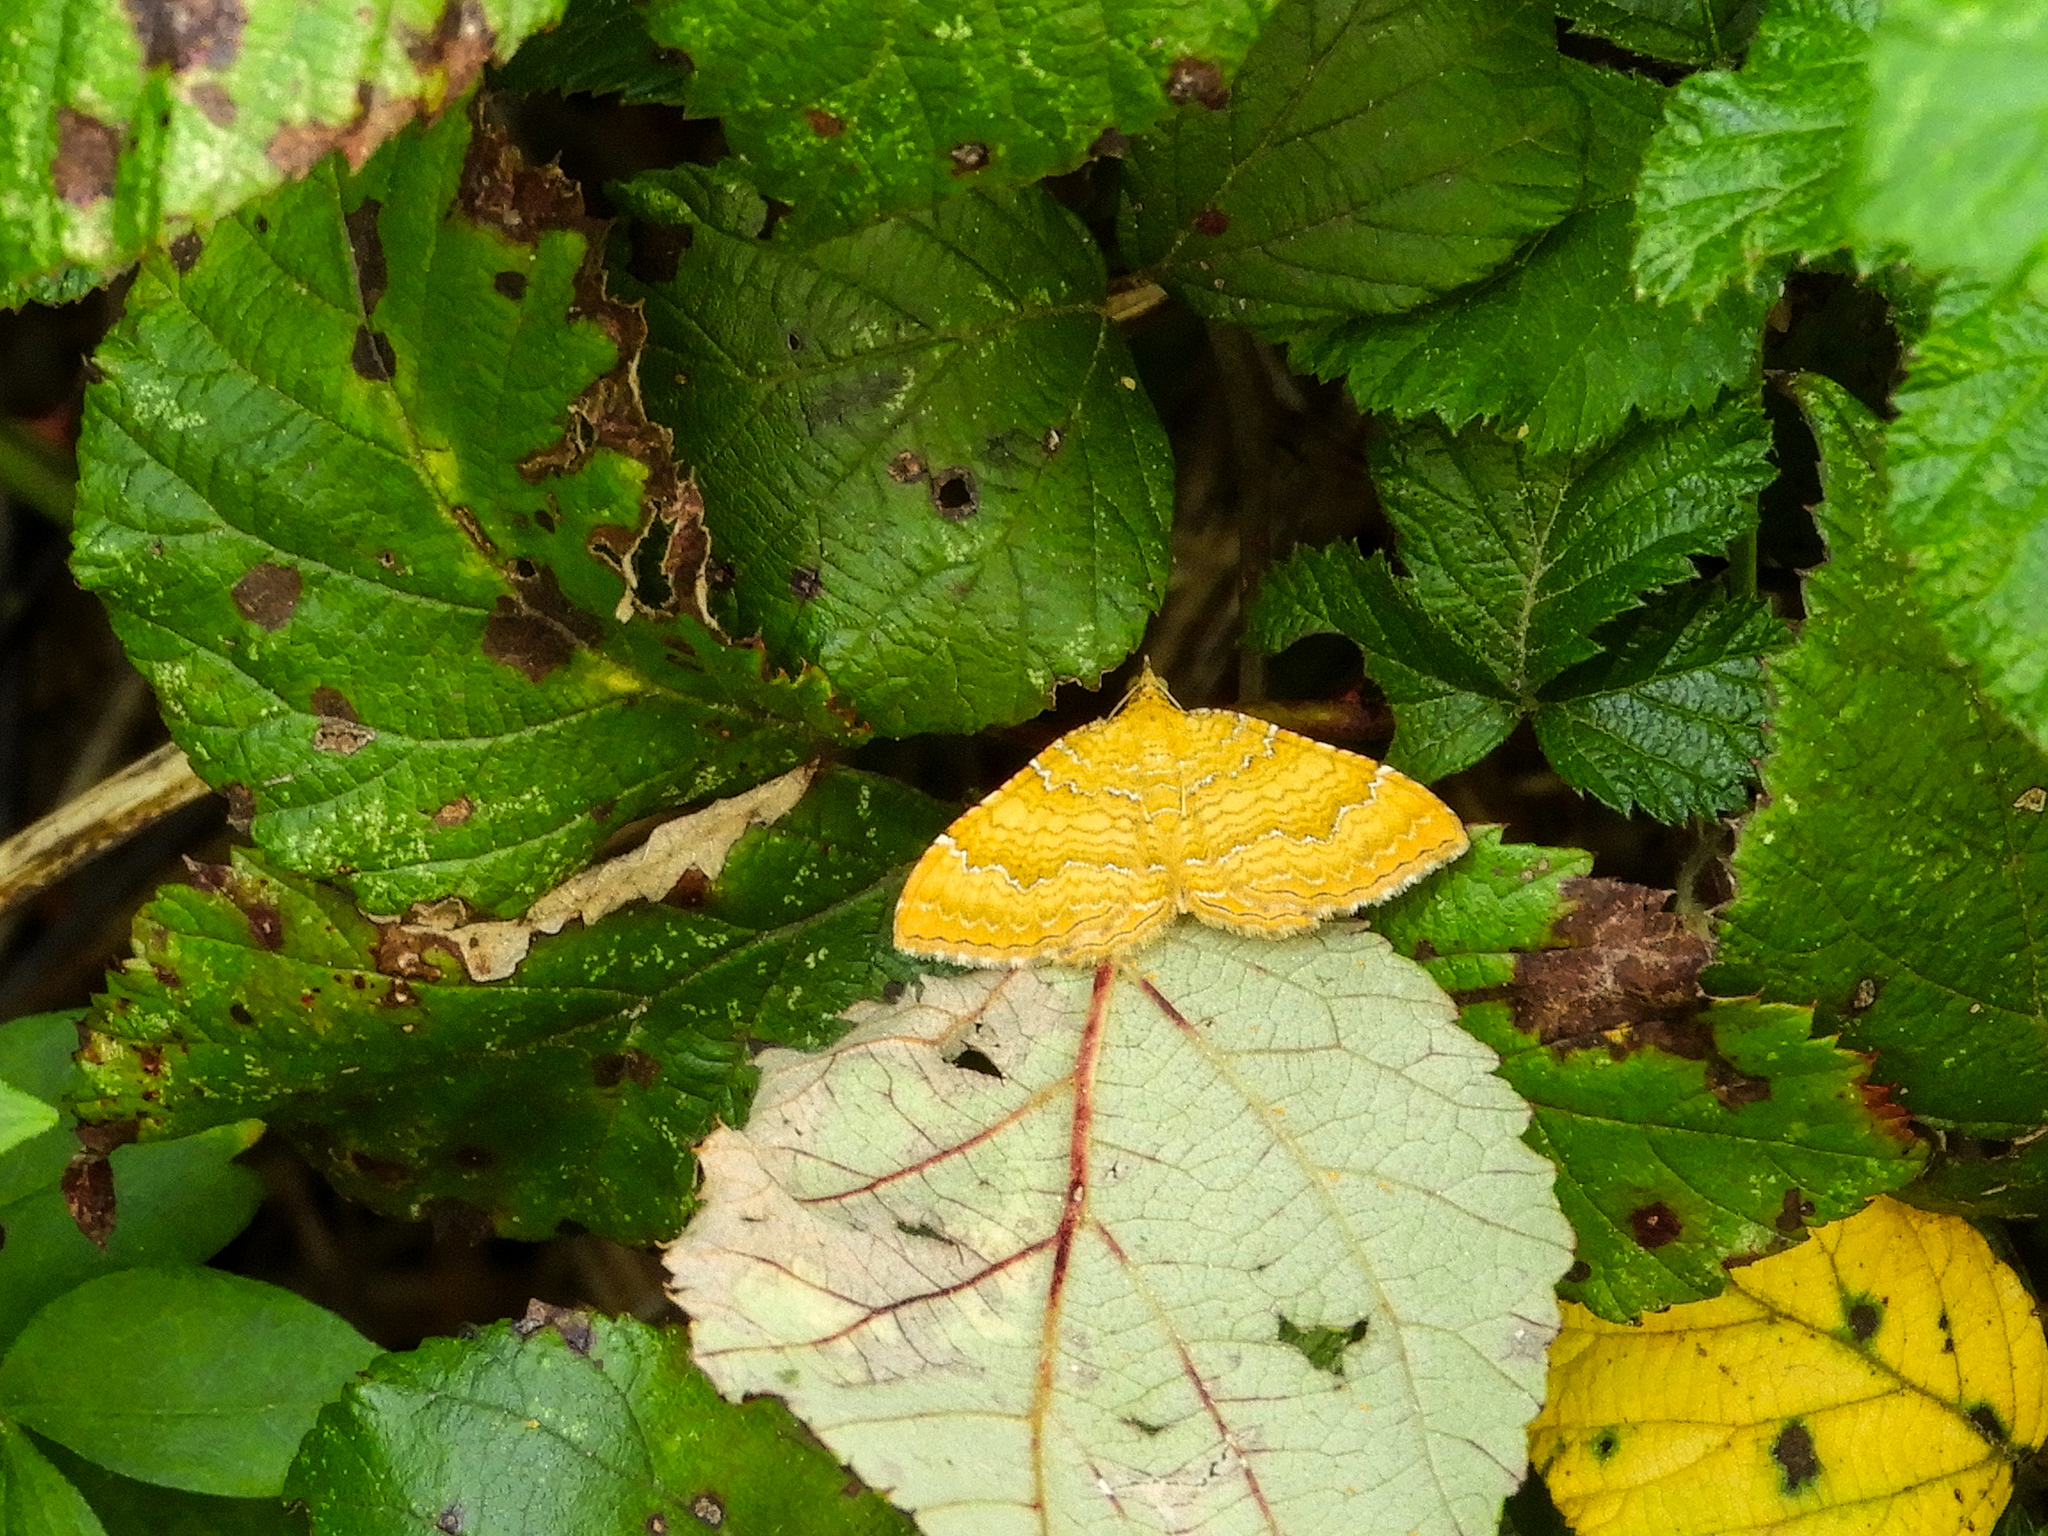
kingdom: Animalia
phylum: Arthropoda
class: Insecta
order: Lepidoptera
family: Geometridae
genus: Camptogramma
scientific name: Camptogramma bilineata
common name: Yellow shell
